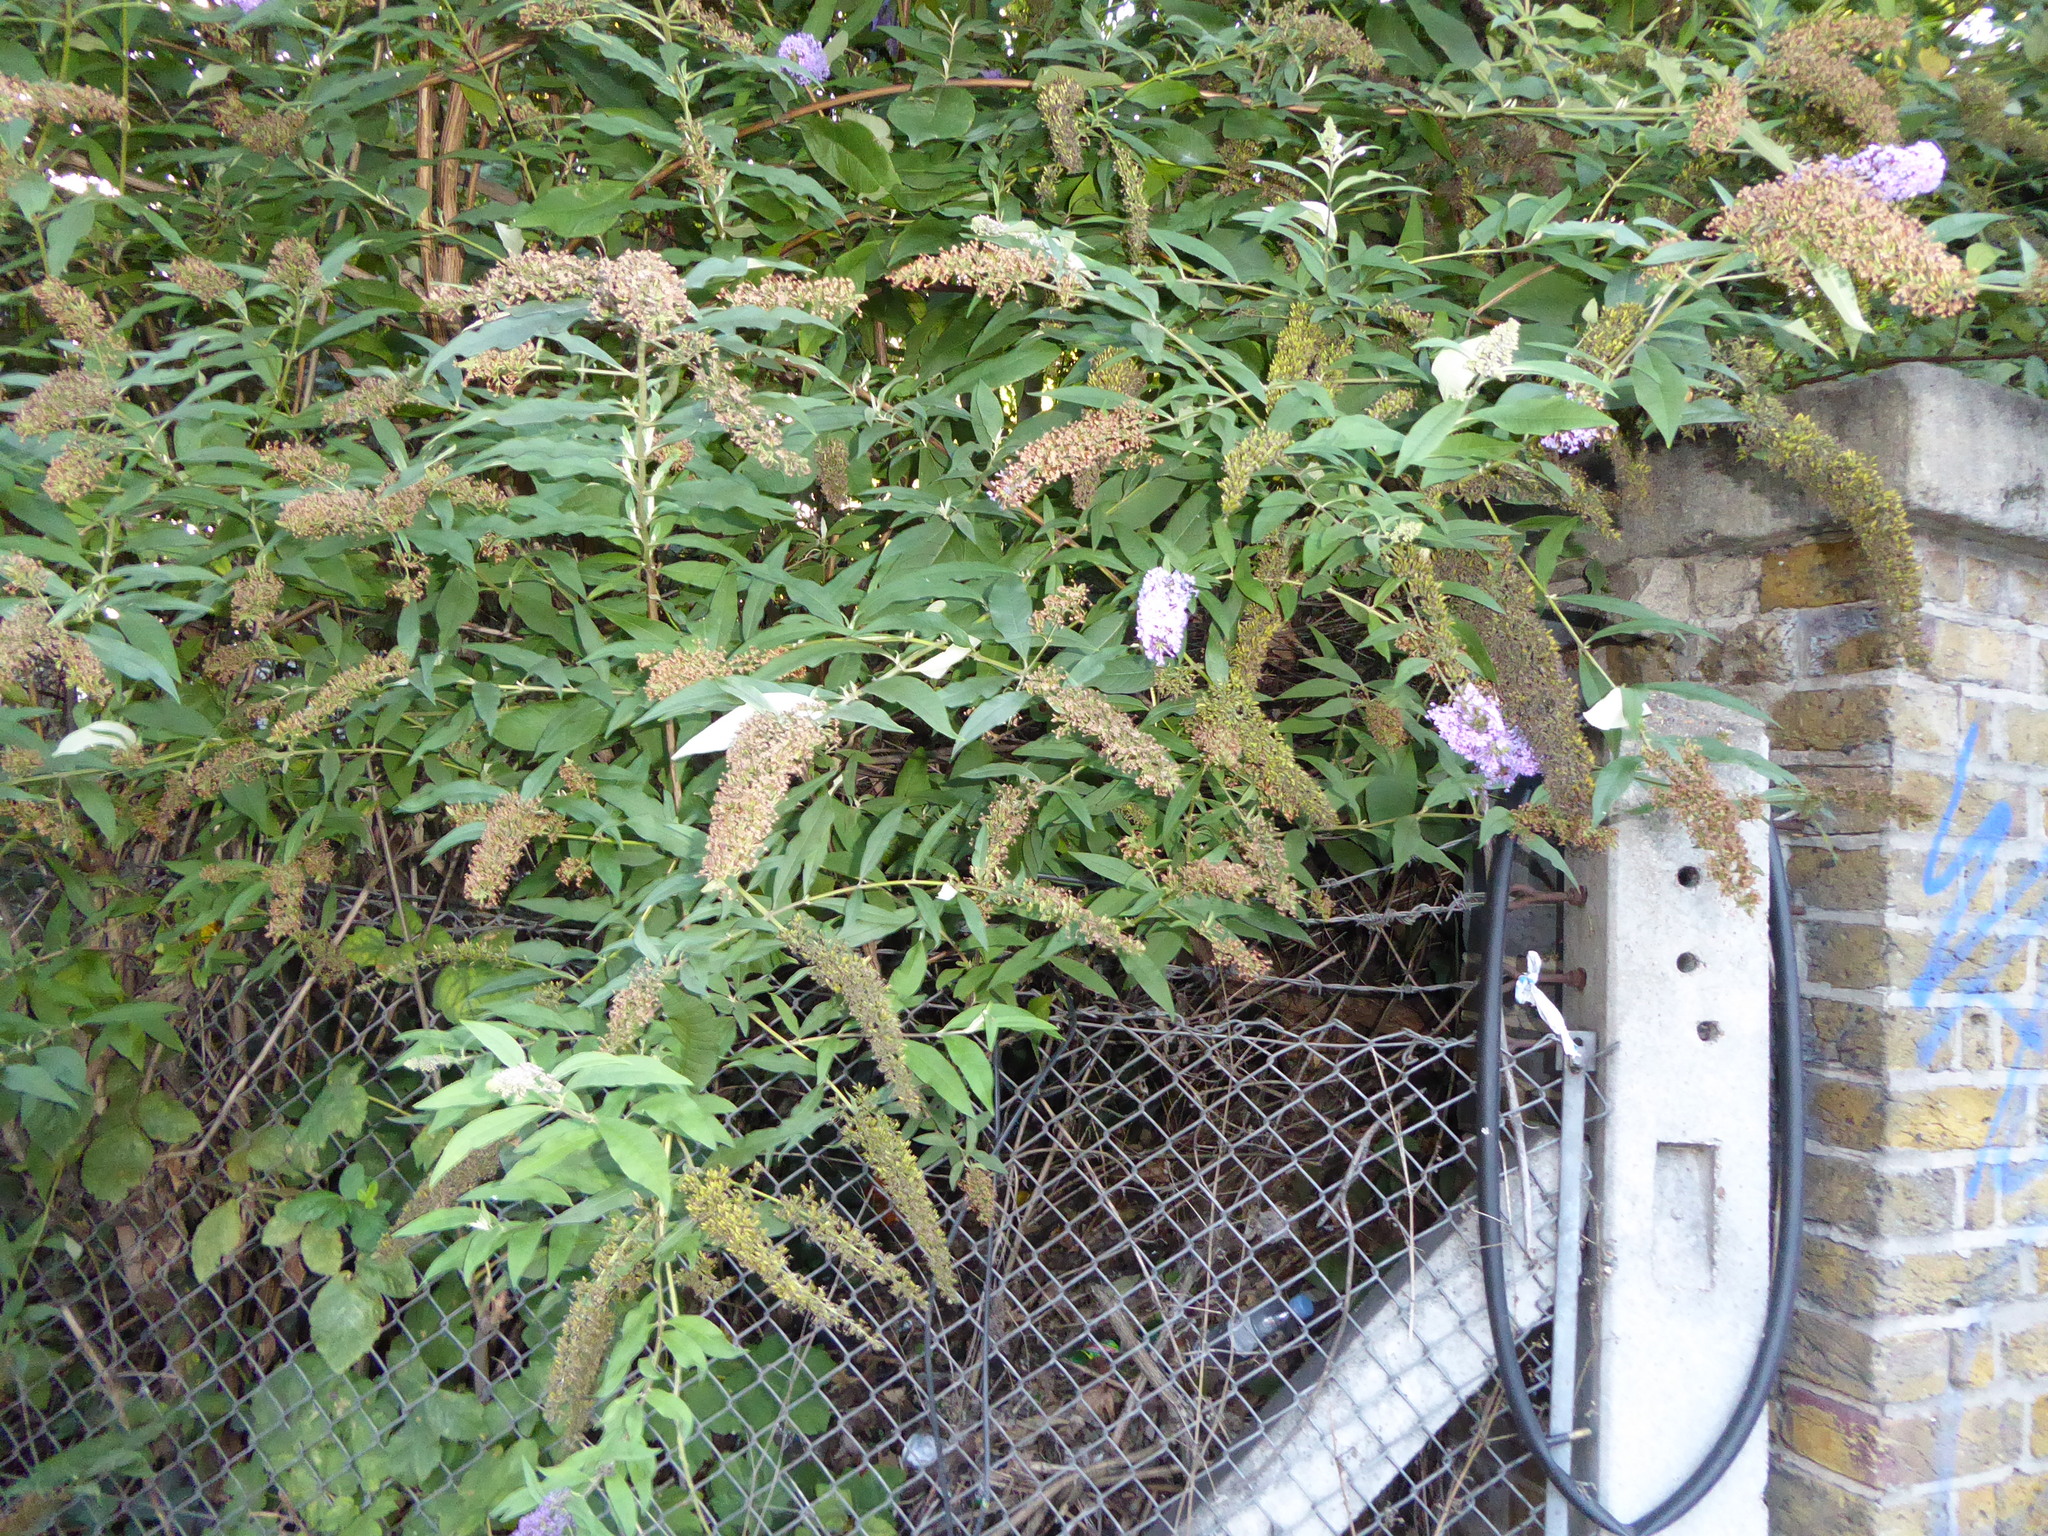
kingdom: Plantae
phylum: Tracheophyta
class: Magnoliopsida
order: Lamiales
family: Scrophulariaceae
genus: Buddleja
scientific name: Buddleja davidii
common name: Butterfly-bush
